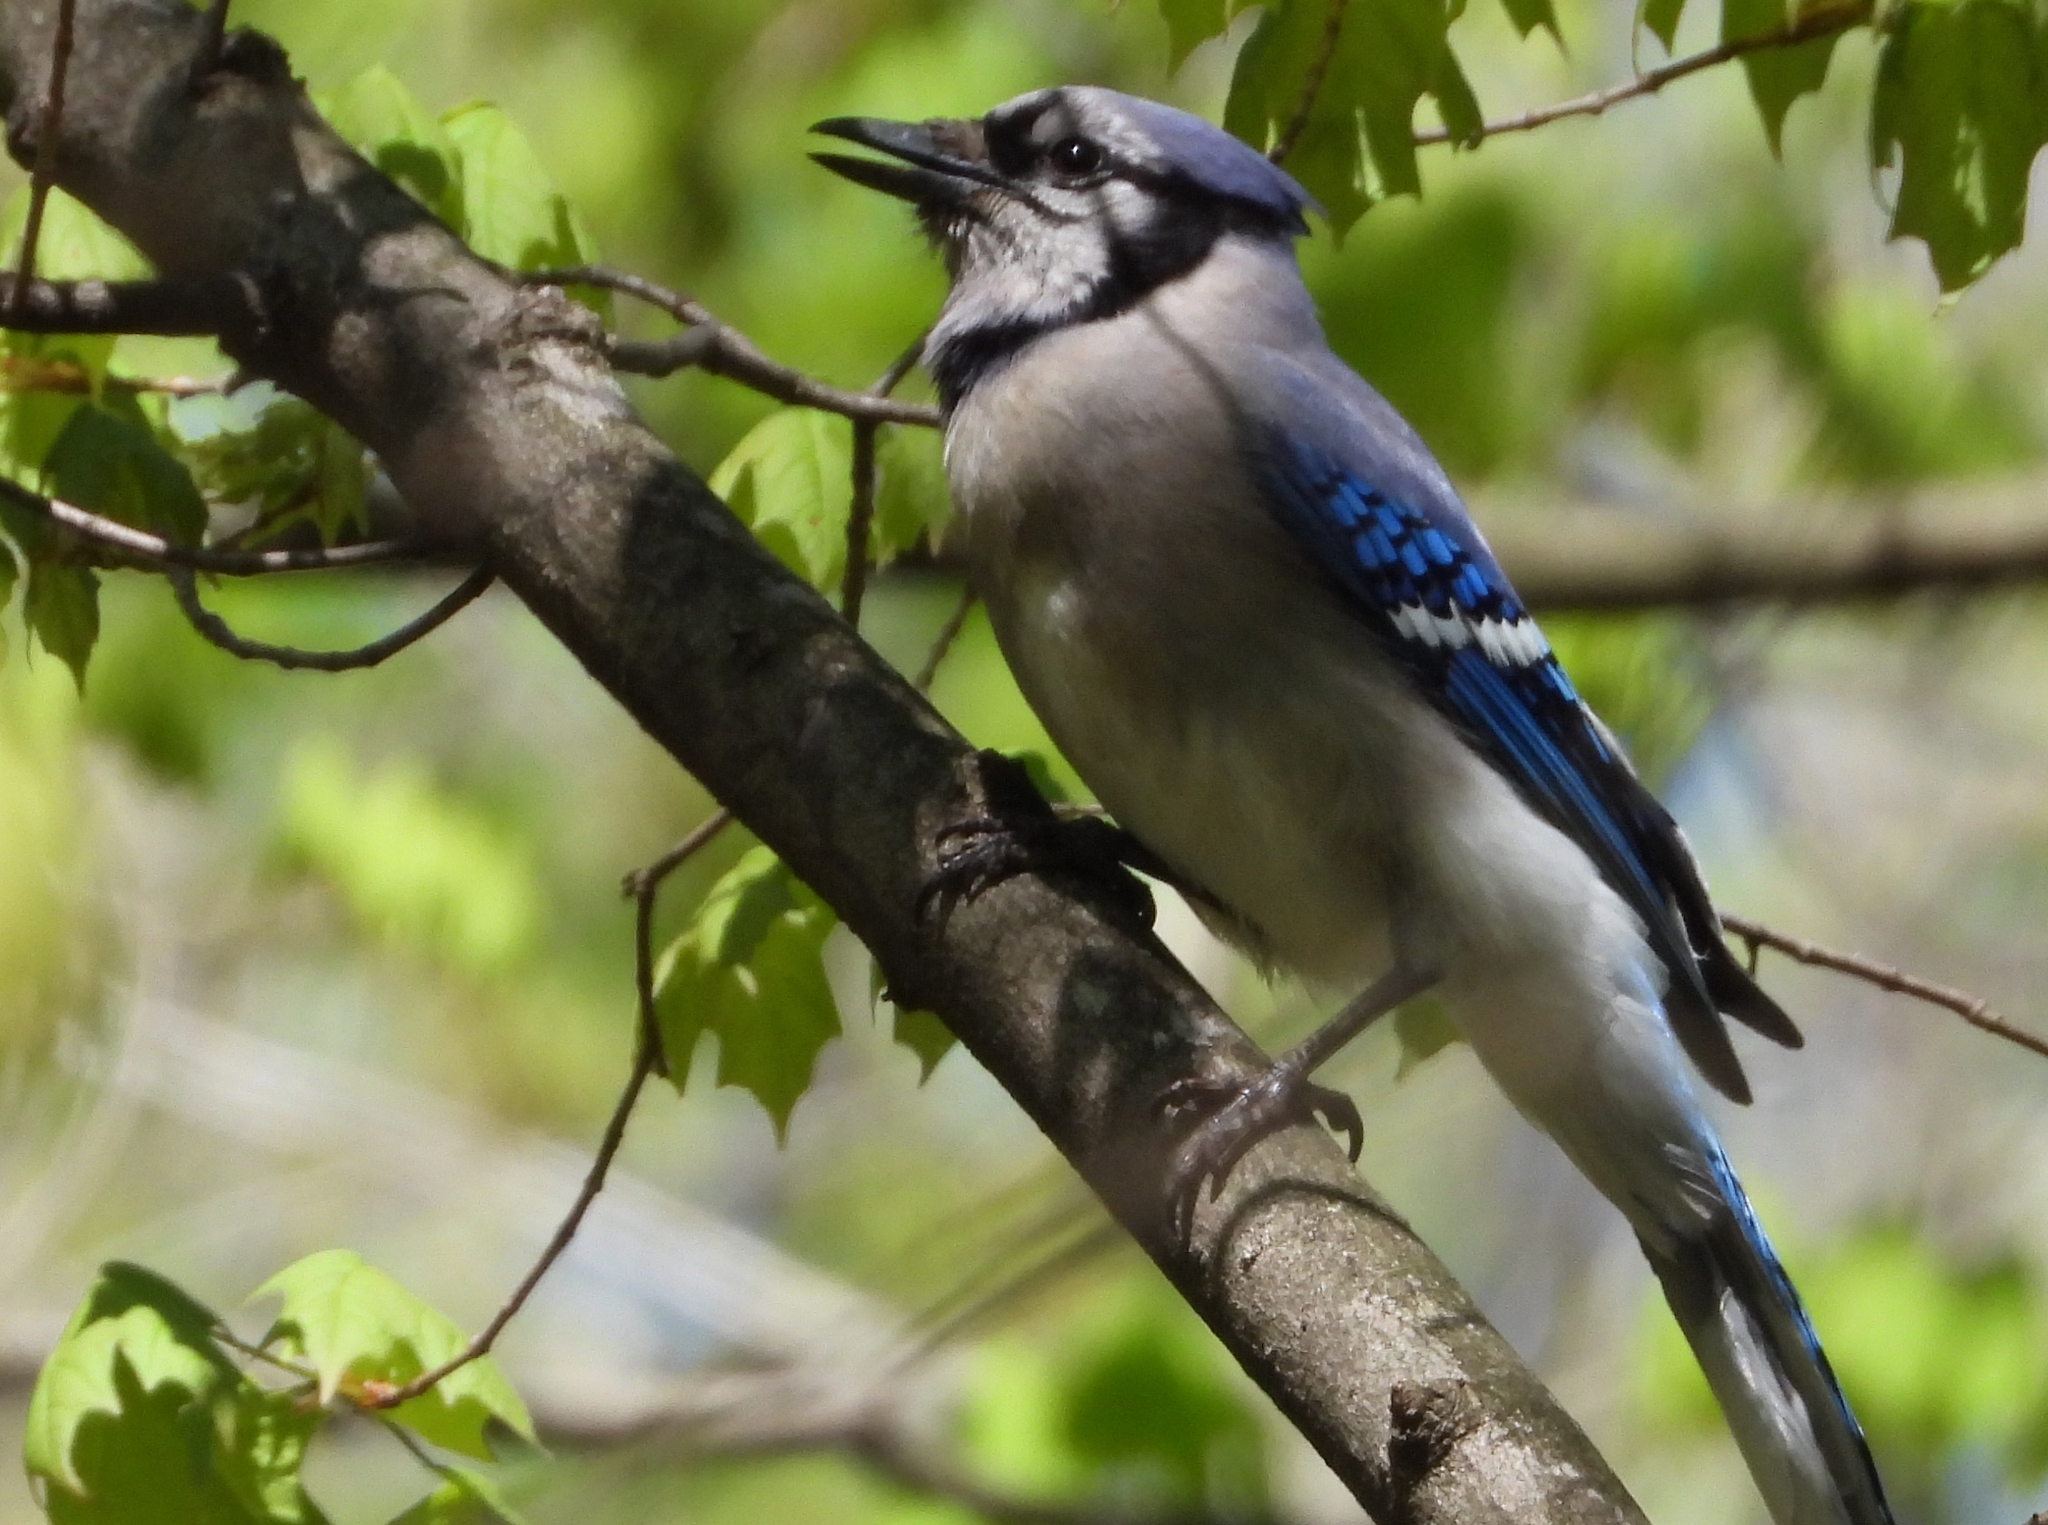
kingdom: Animalia
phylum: Chordata
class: Aves
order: Passeriformes
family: Corvidae
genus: Cyanocitta
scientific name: Cyanocitta cristata
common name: Blue jay
